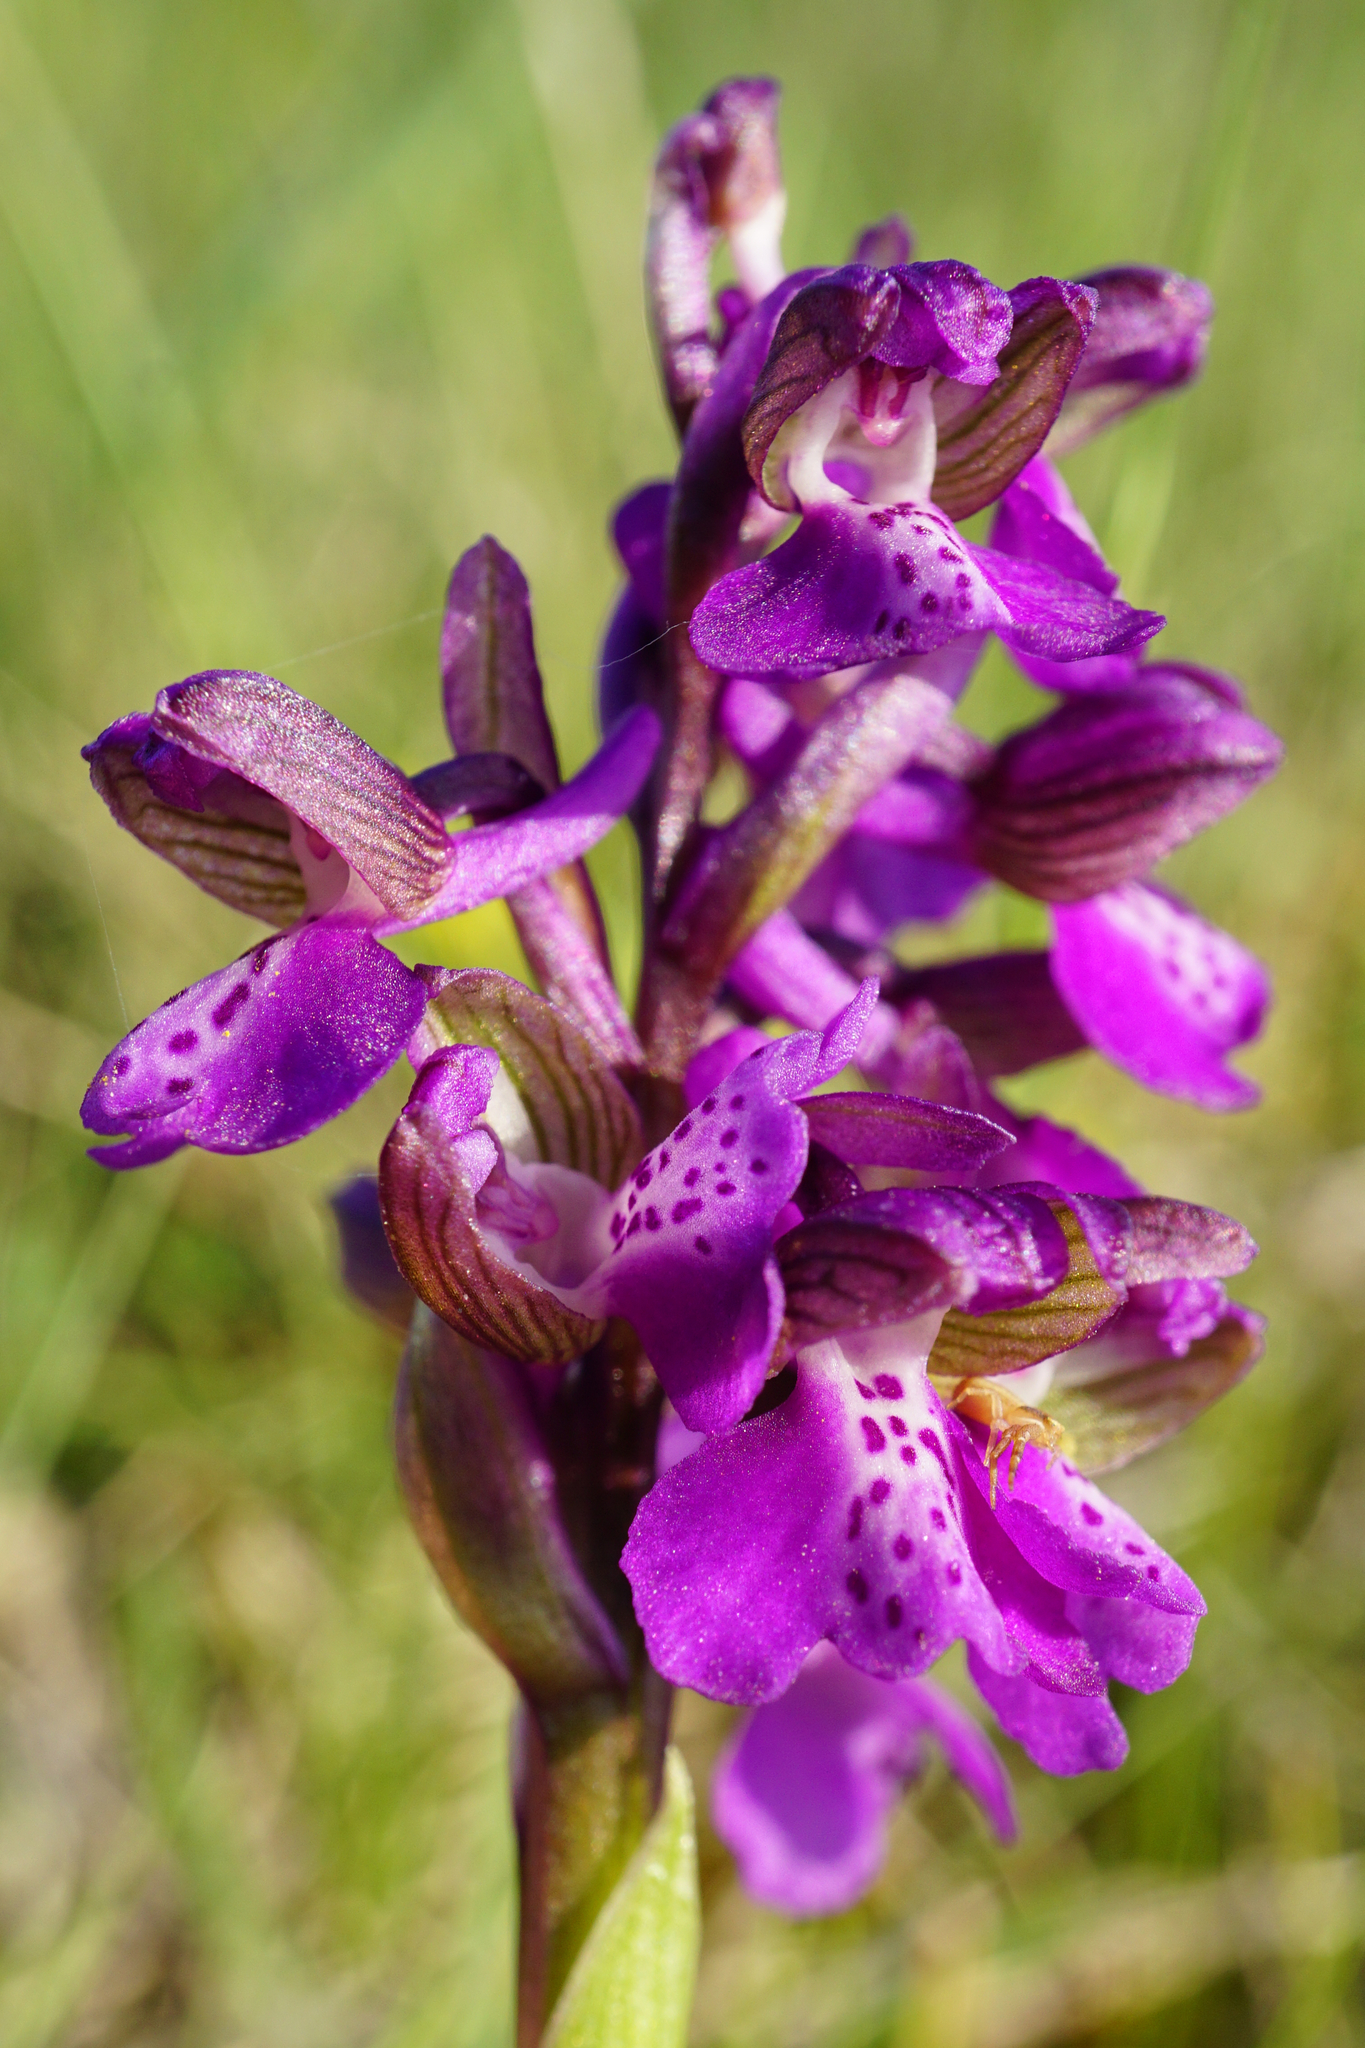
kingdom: Plantae
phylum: Tracheophyta
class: Liliopsida
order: Asparagales
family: Orchidaceae
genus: Anacamptis
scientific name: Anacamptis morio
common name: Green-winged orchid
